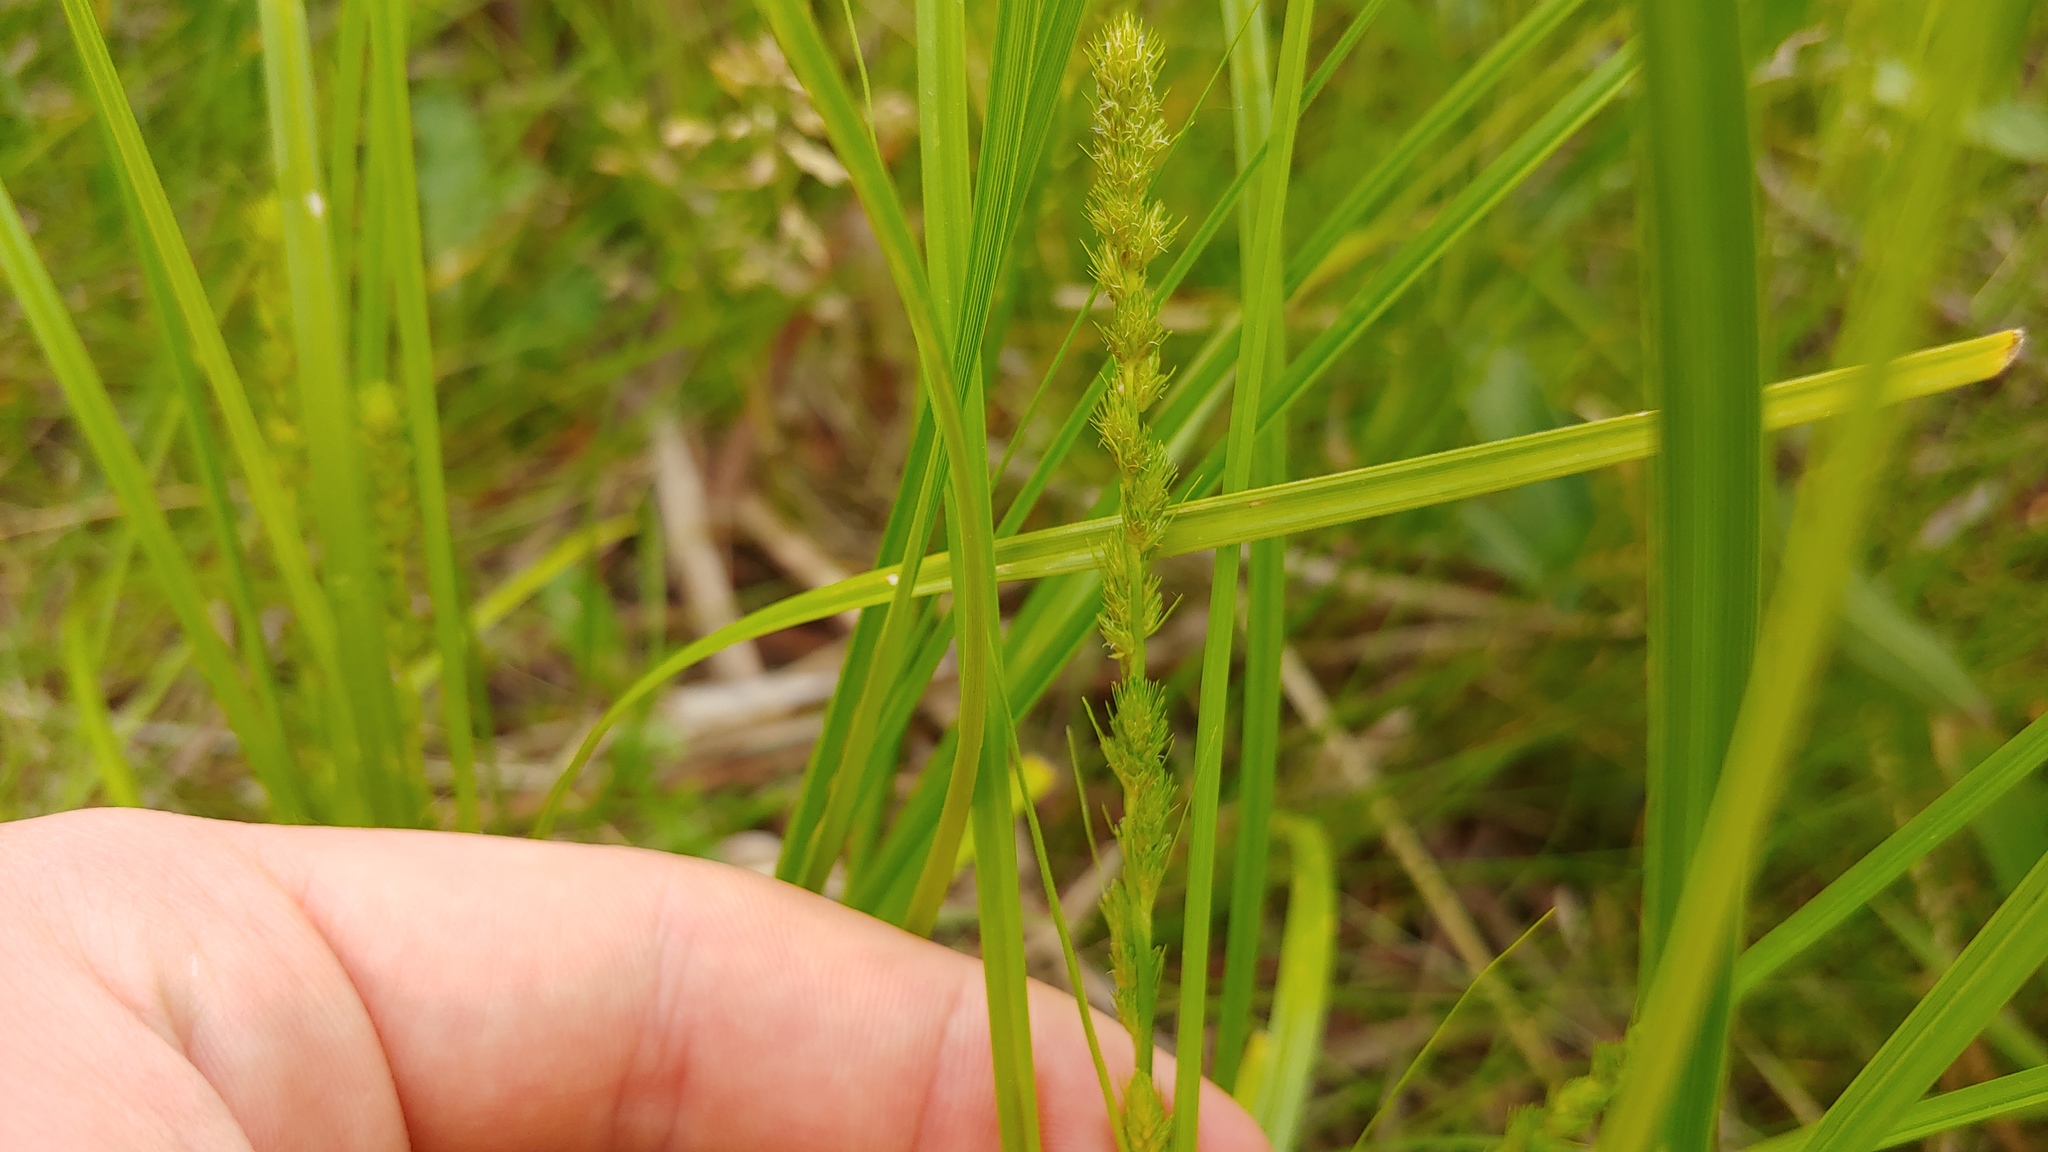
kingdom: Plantae
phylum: Tracheophyta
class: Liliopsida
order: Poales
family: Cyperaceae
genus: Carex
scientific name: Carex vulpinoidea
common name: American fox-sedge
